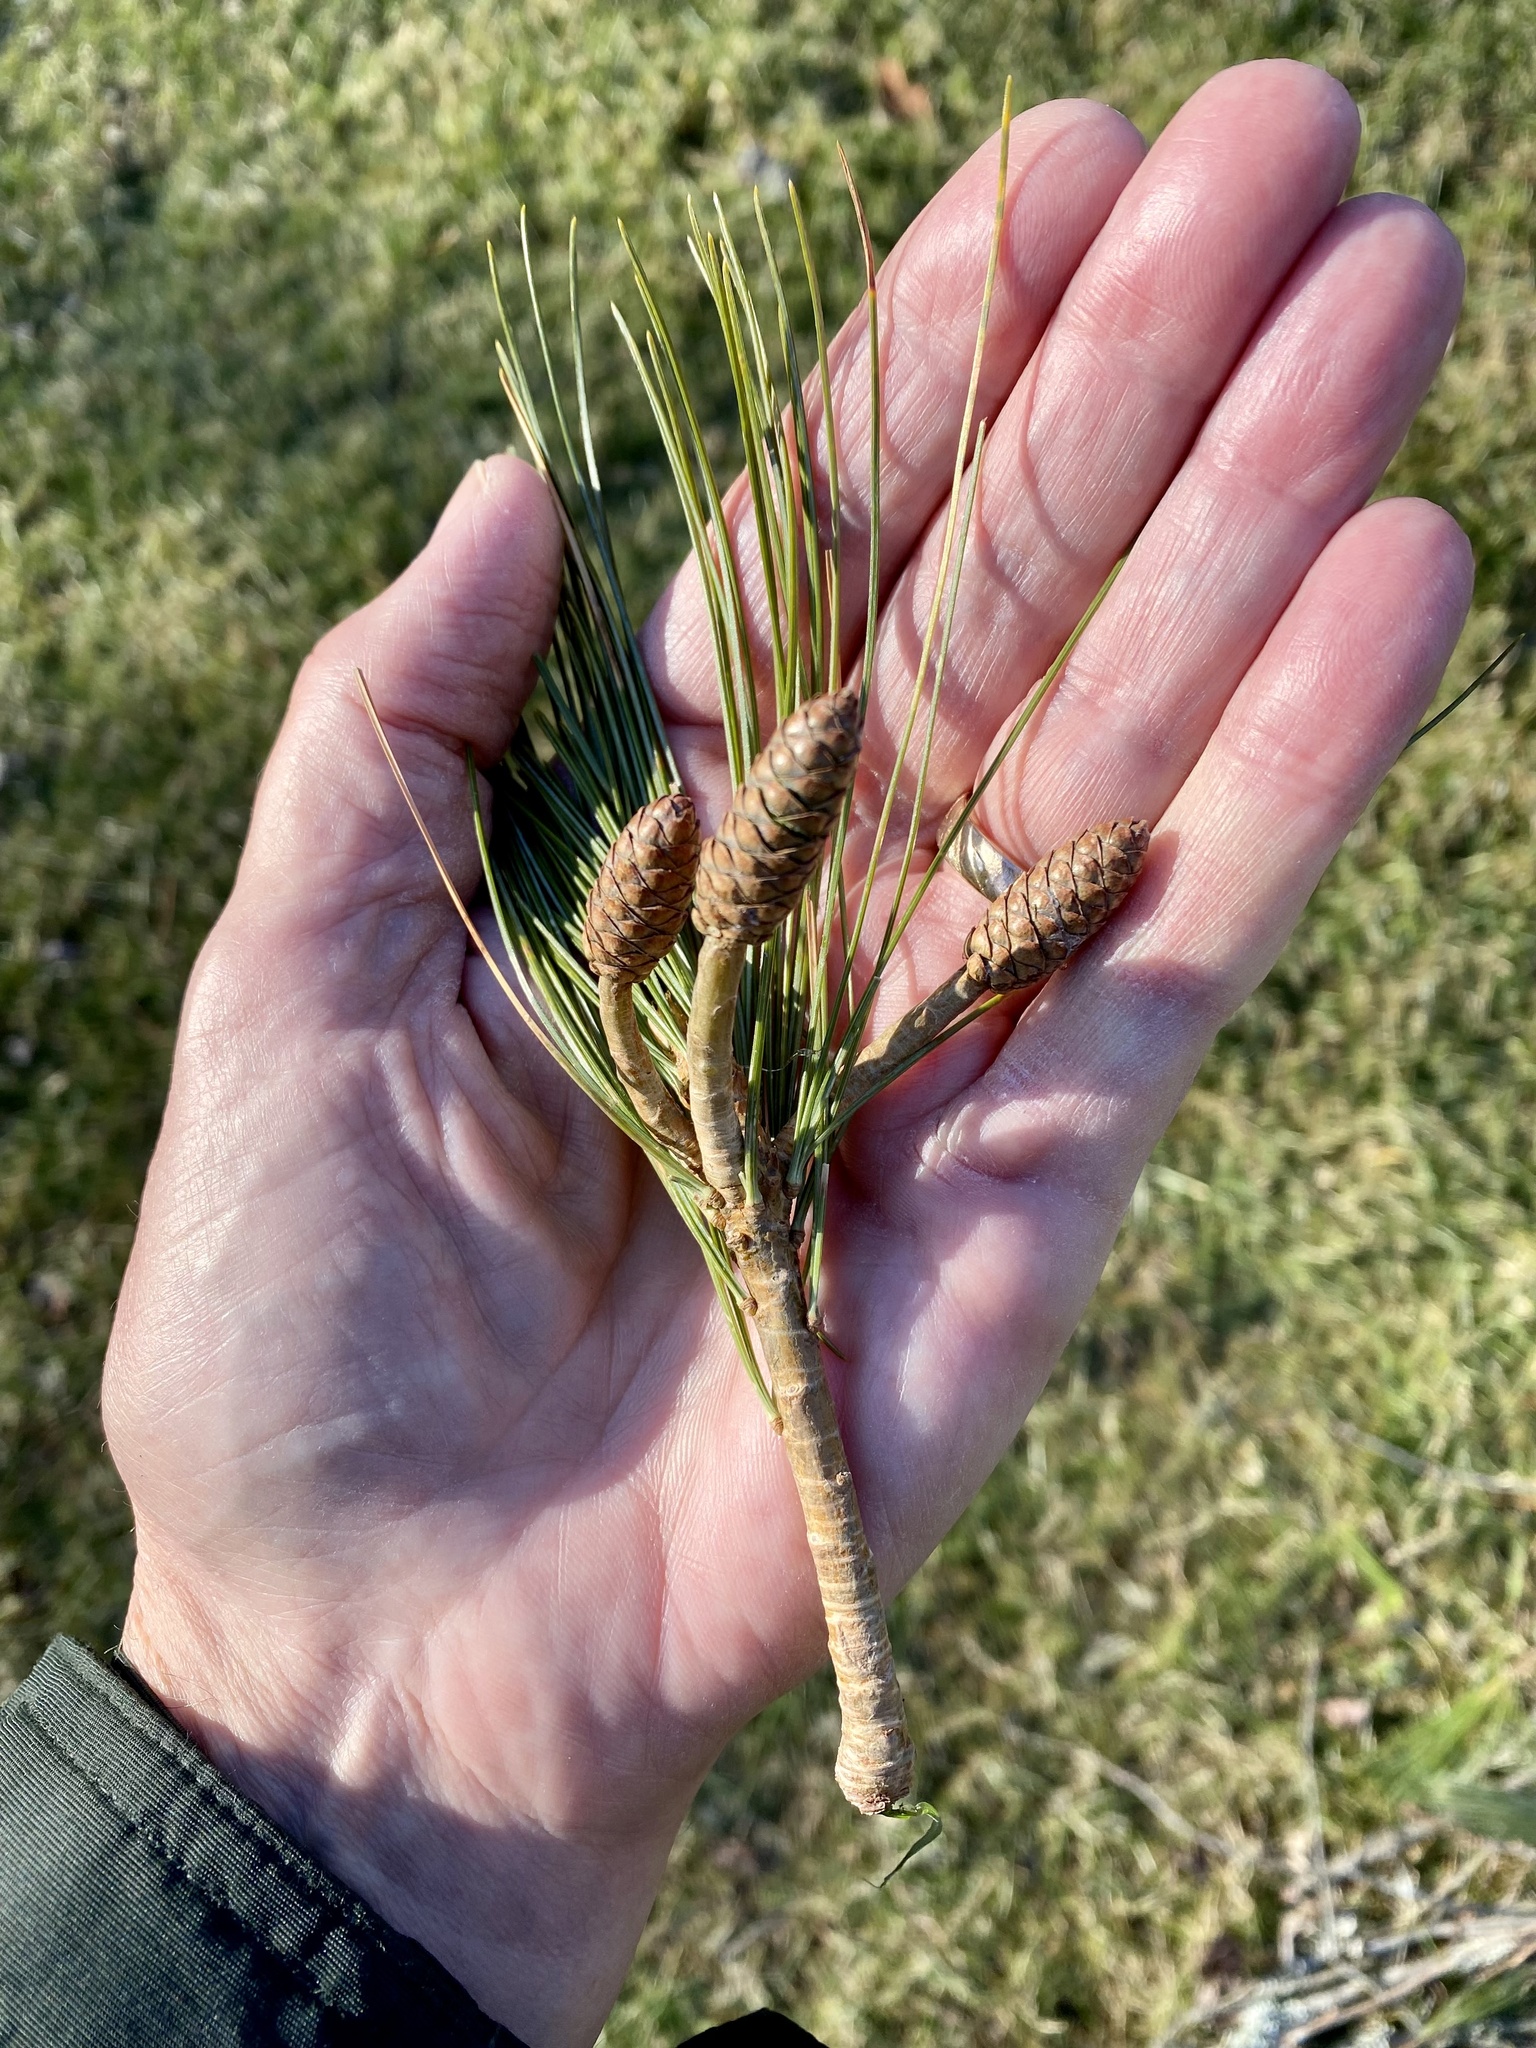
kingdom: Plantae
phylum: Tracheophyta
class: Pinopsida
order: Pinales
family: Pinaceae
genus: Pinus
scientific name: Pinus strobus
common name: Weymouth pine
